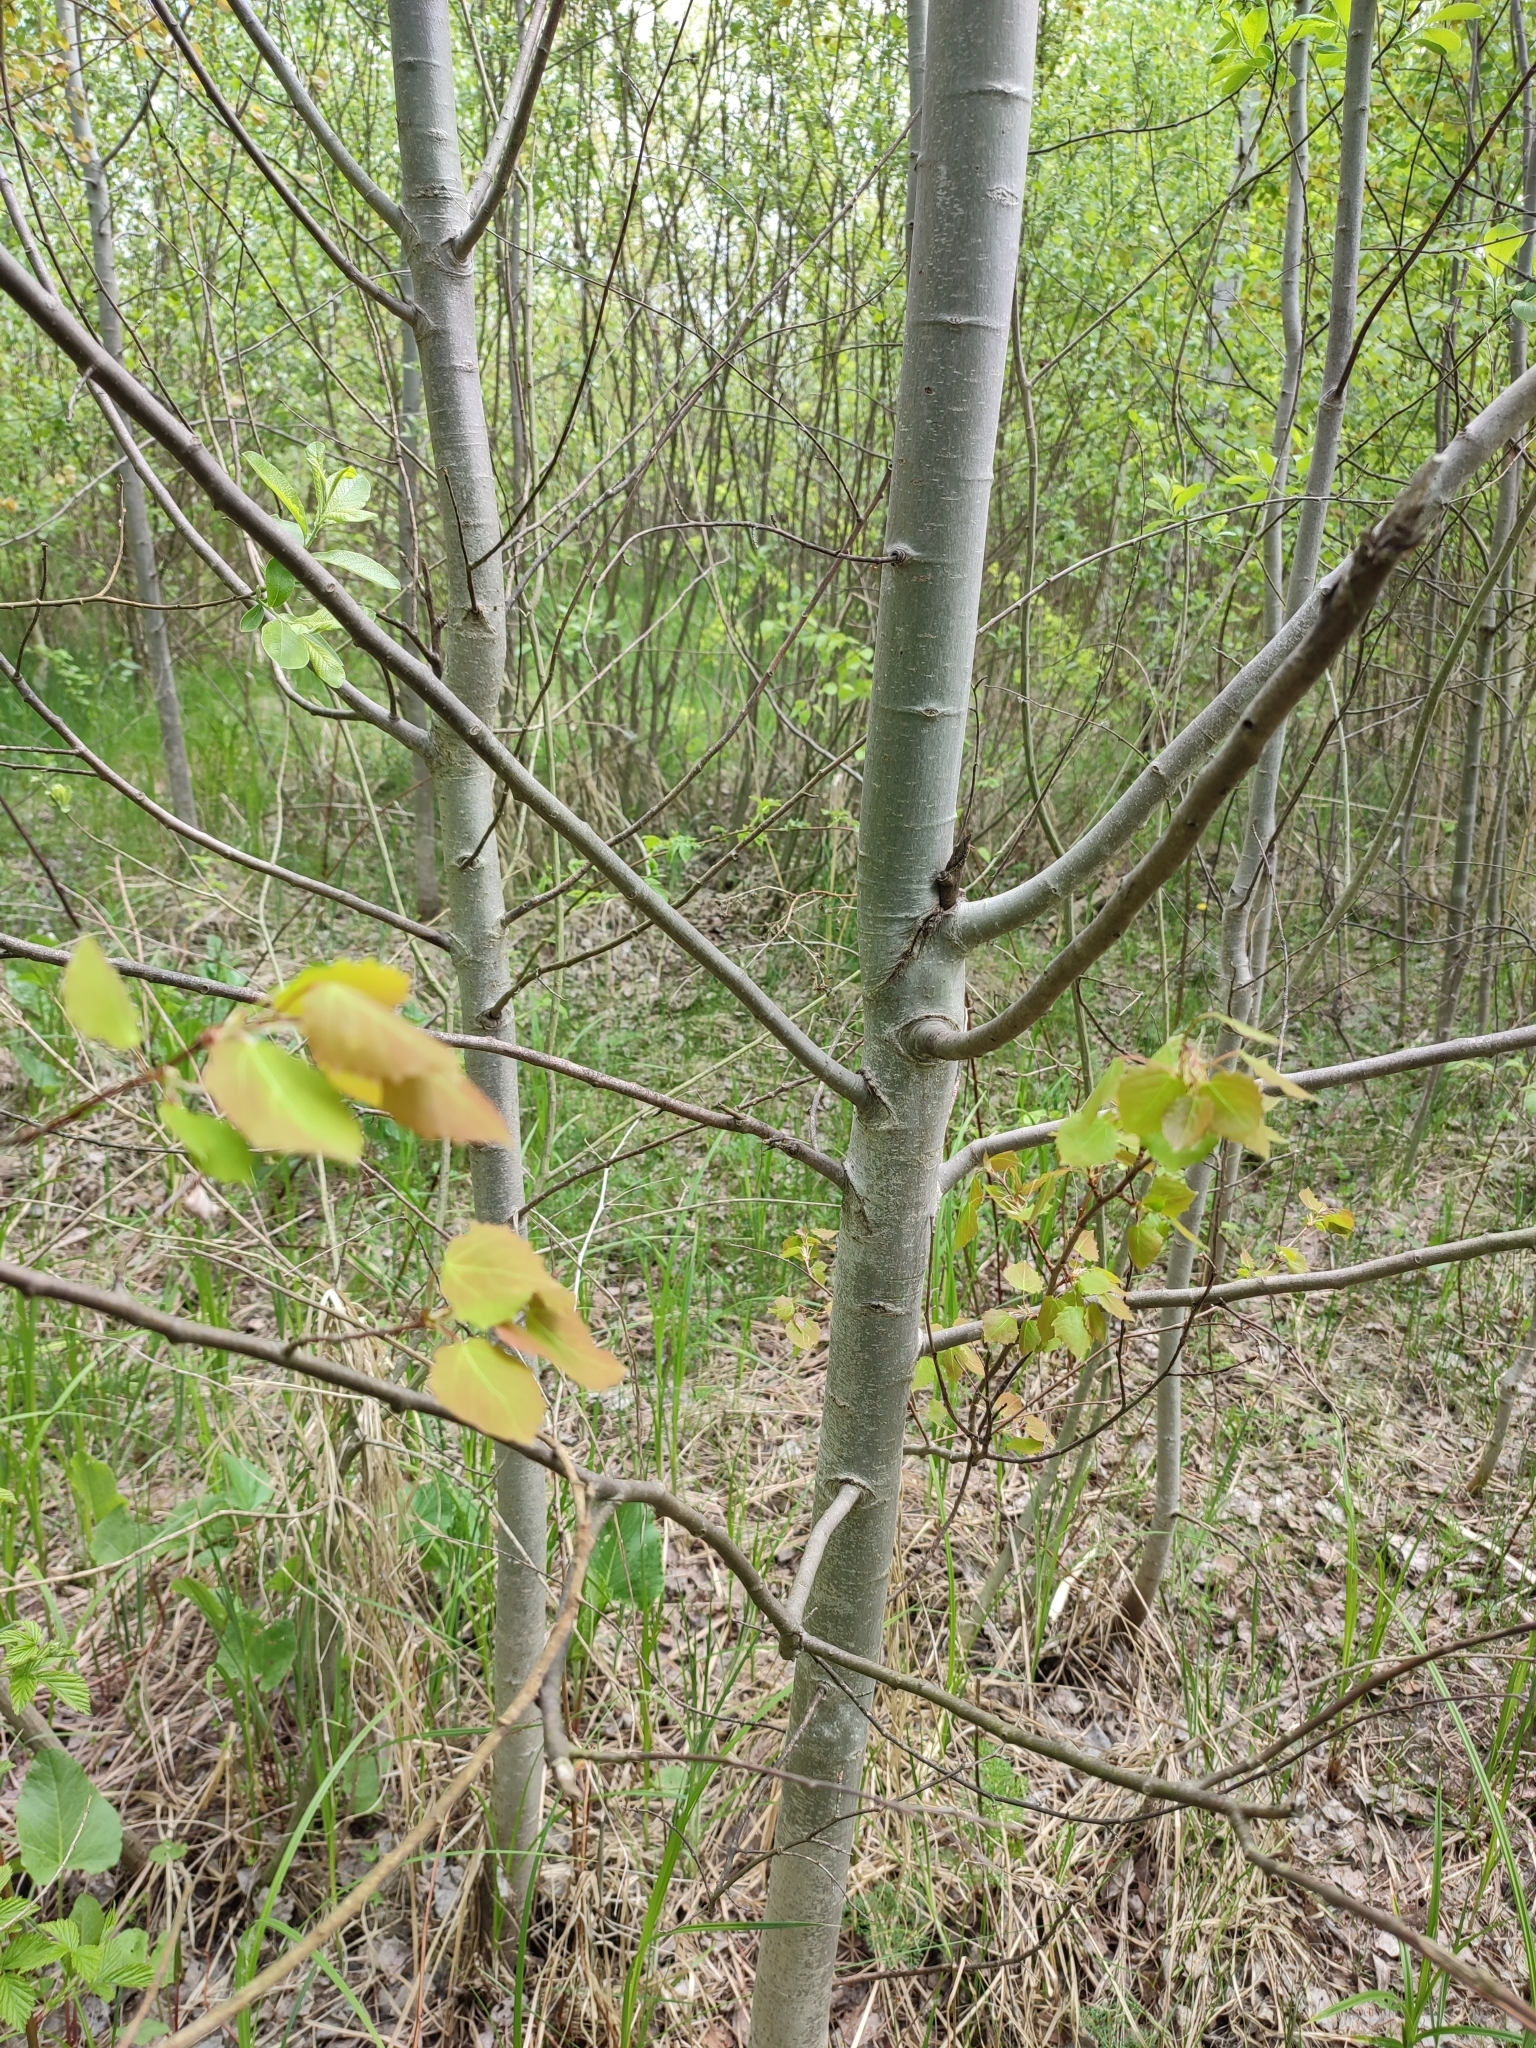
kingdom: Plantae
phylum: Tracheophyta
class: Magnoliopsida
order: Malpighiales
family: Salicaceae
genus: Populus
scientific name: Populus tremula
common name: European aspen
